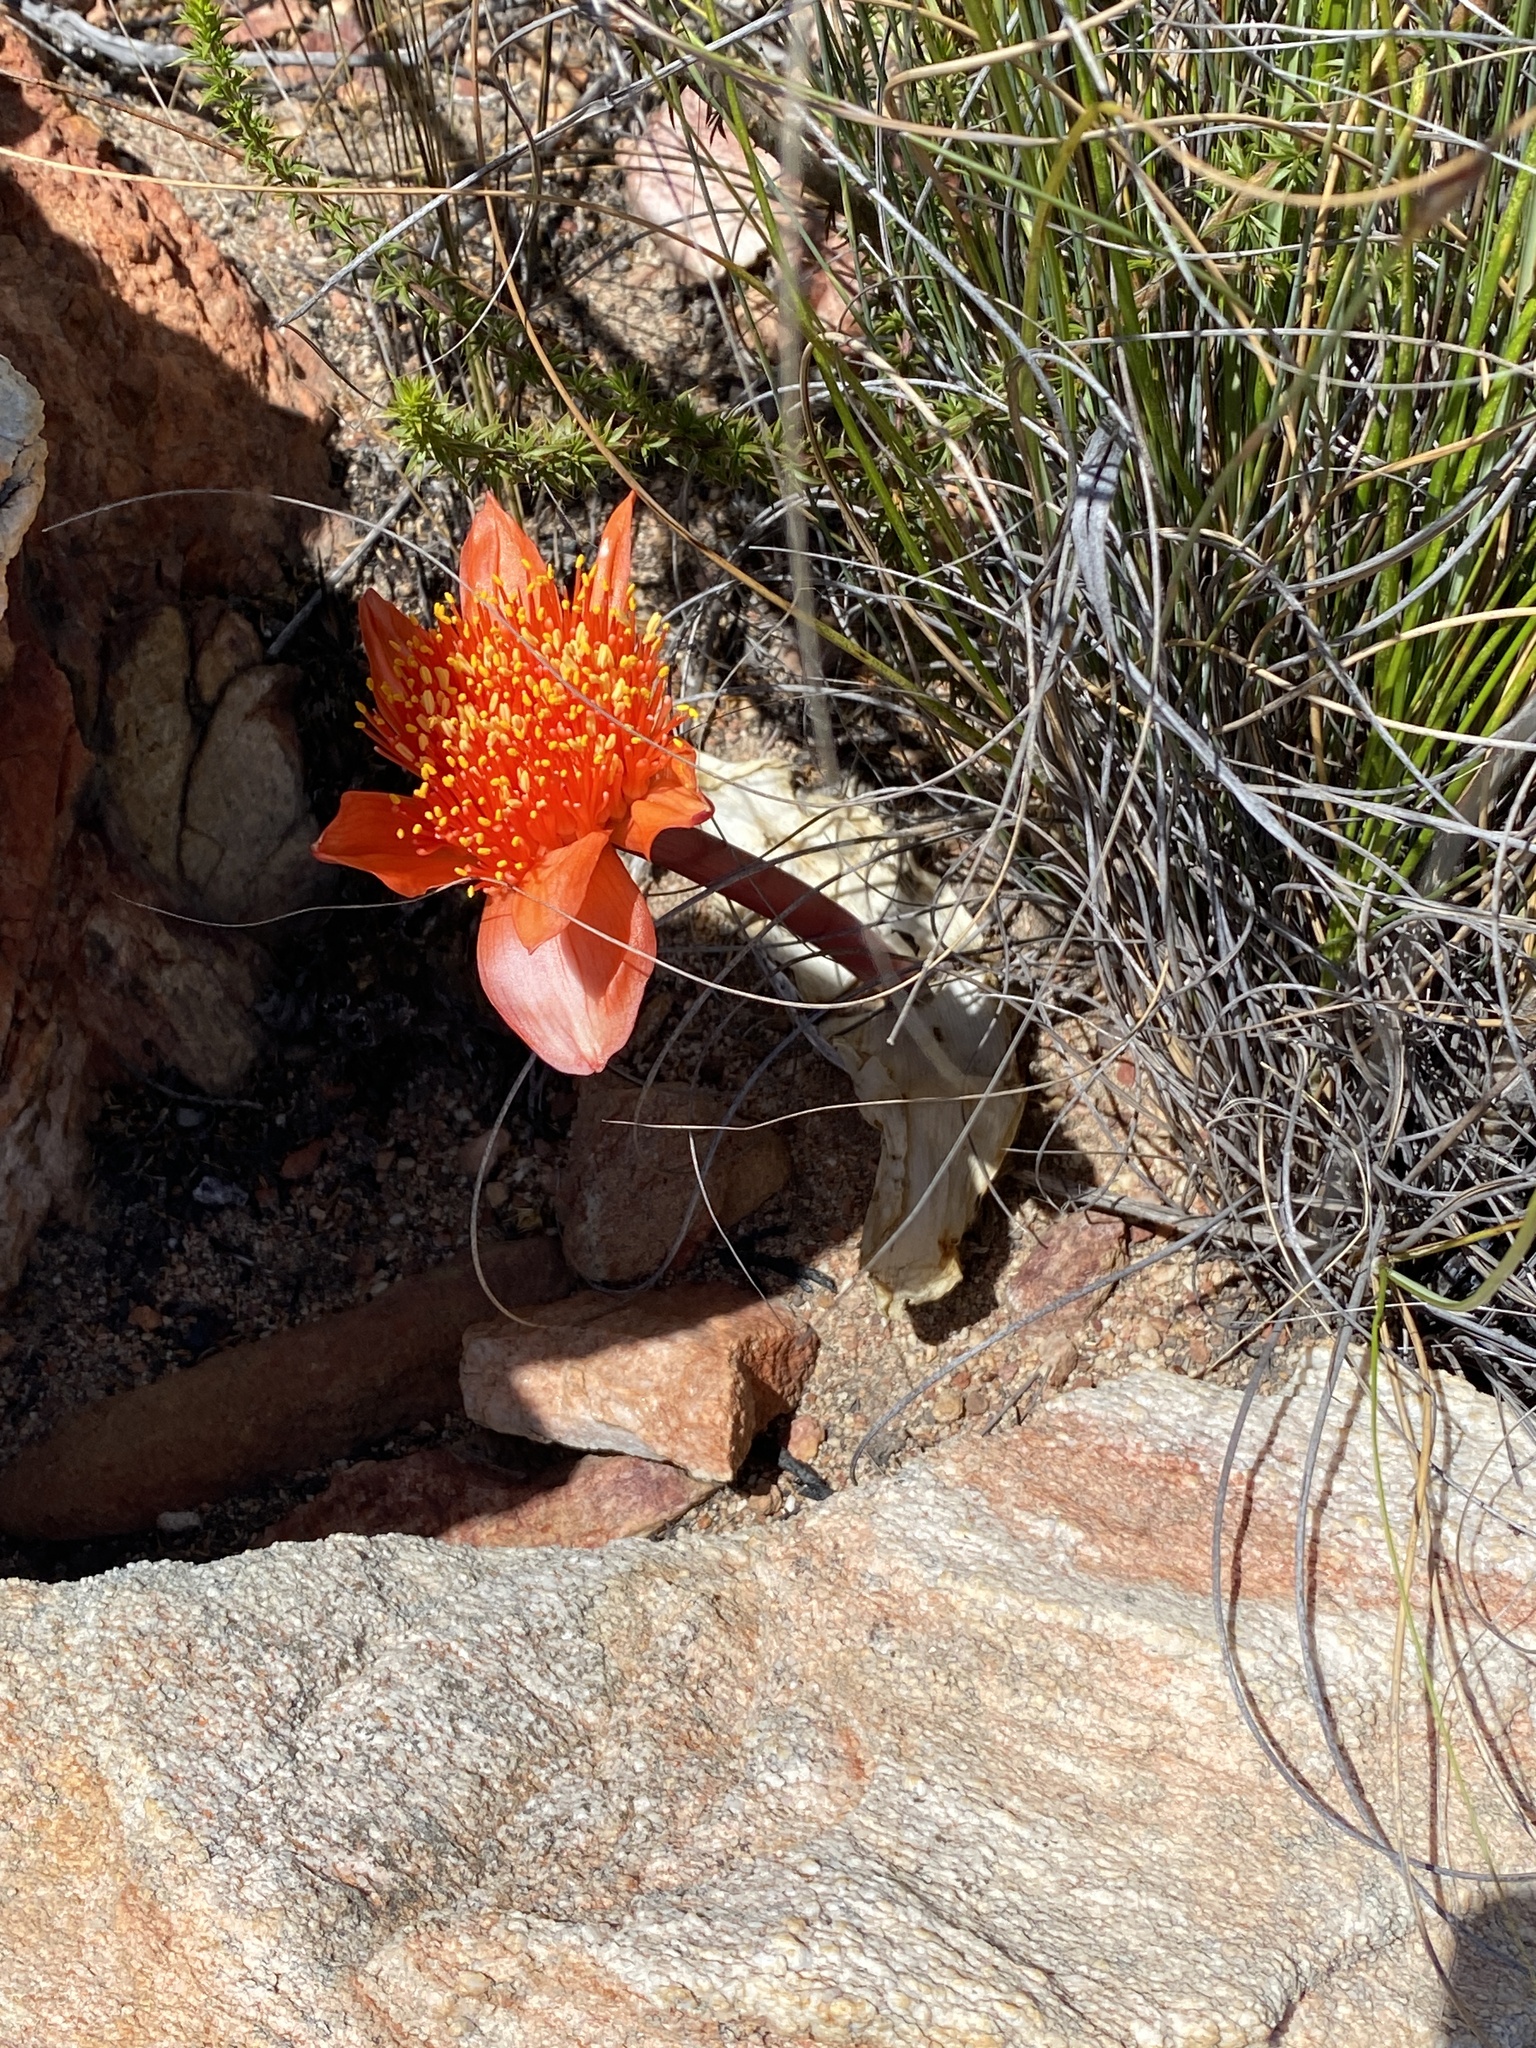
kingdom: Plantae
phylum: Tracheophyta
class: Liliopsida
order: Asparagales
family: Amaryllidaceae
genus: Haemanthus
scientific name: Haemanthus coccineus
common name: Cape-tulip
